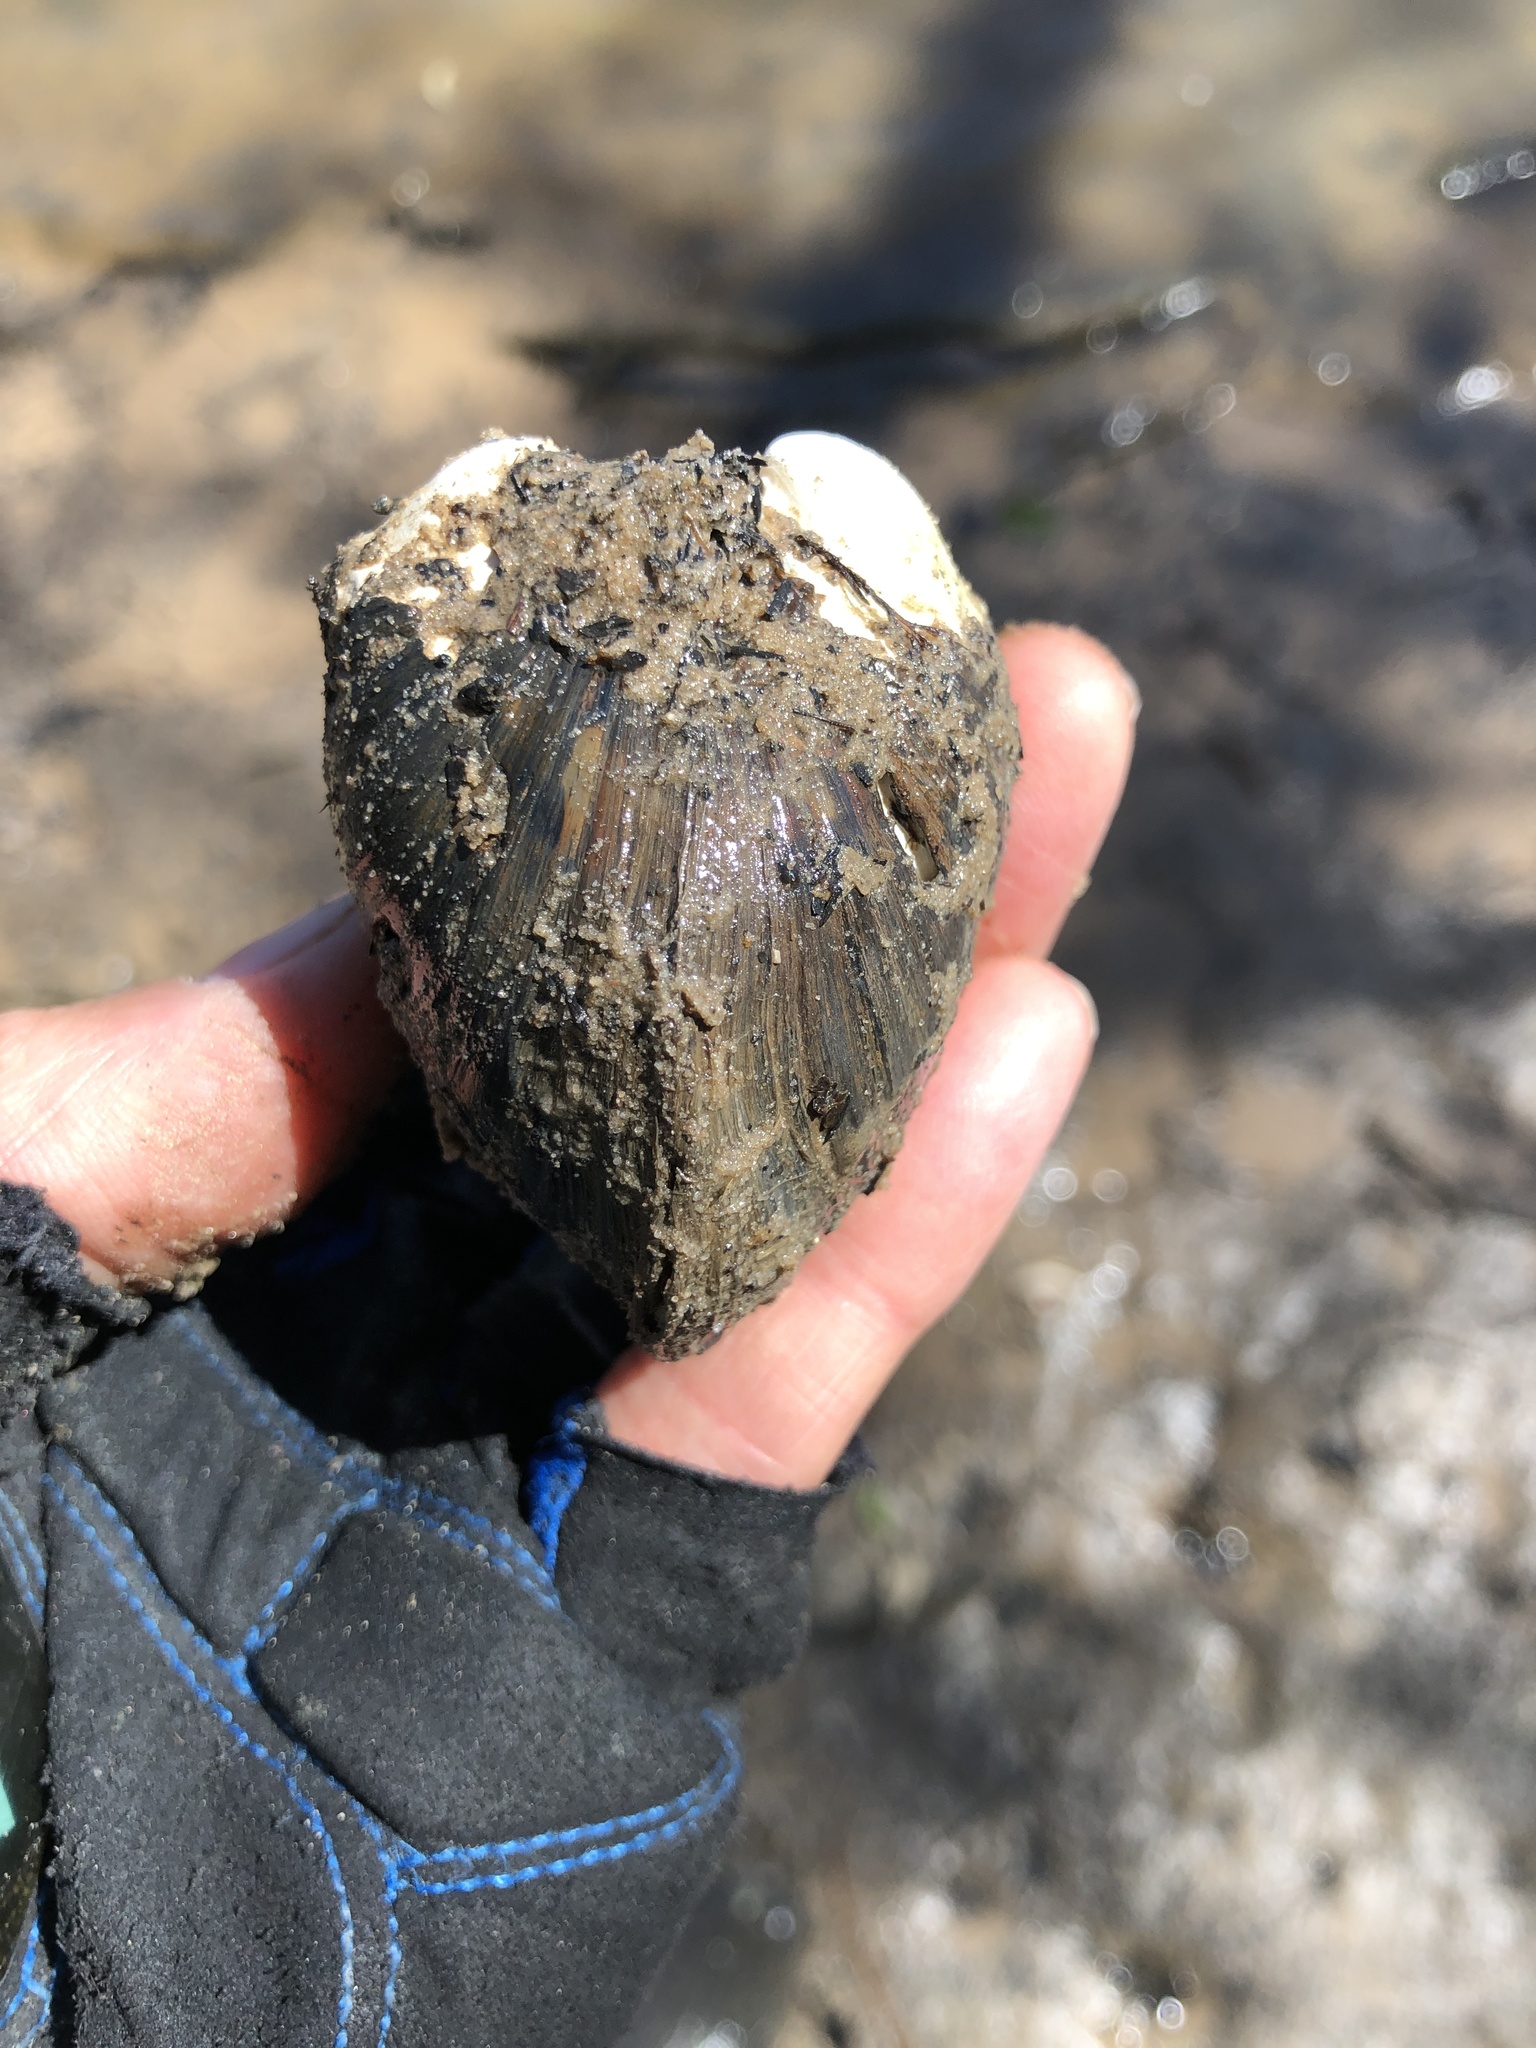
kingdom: Animalia
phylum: Mollusca
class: Bivalvia
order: Venerida
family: Mactridae
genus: Rangia
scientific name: Rangia cuneata
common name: Atlantic rangia
